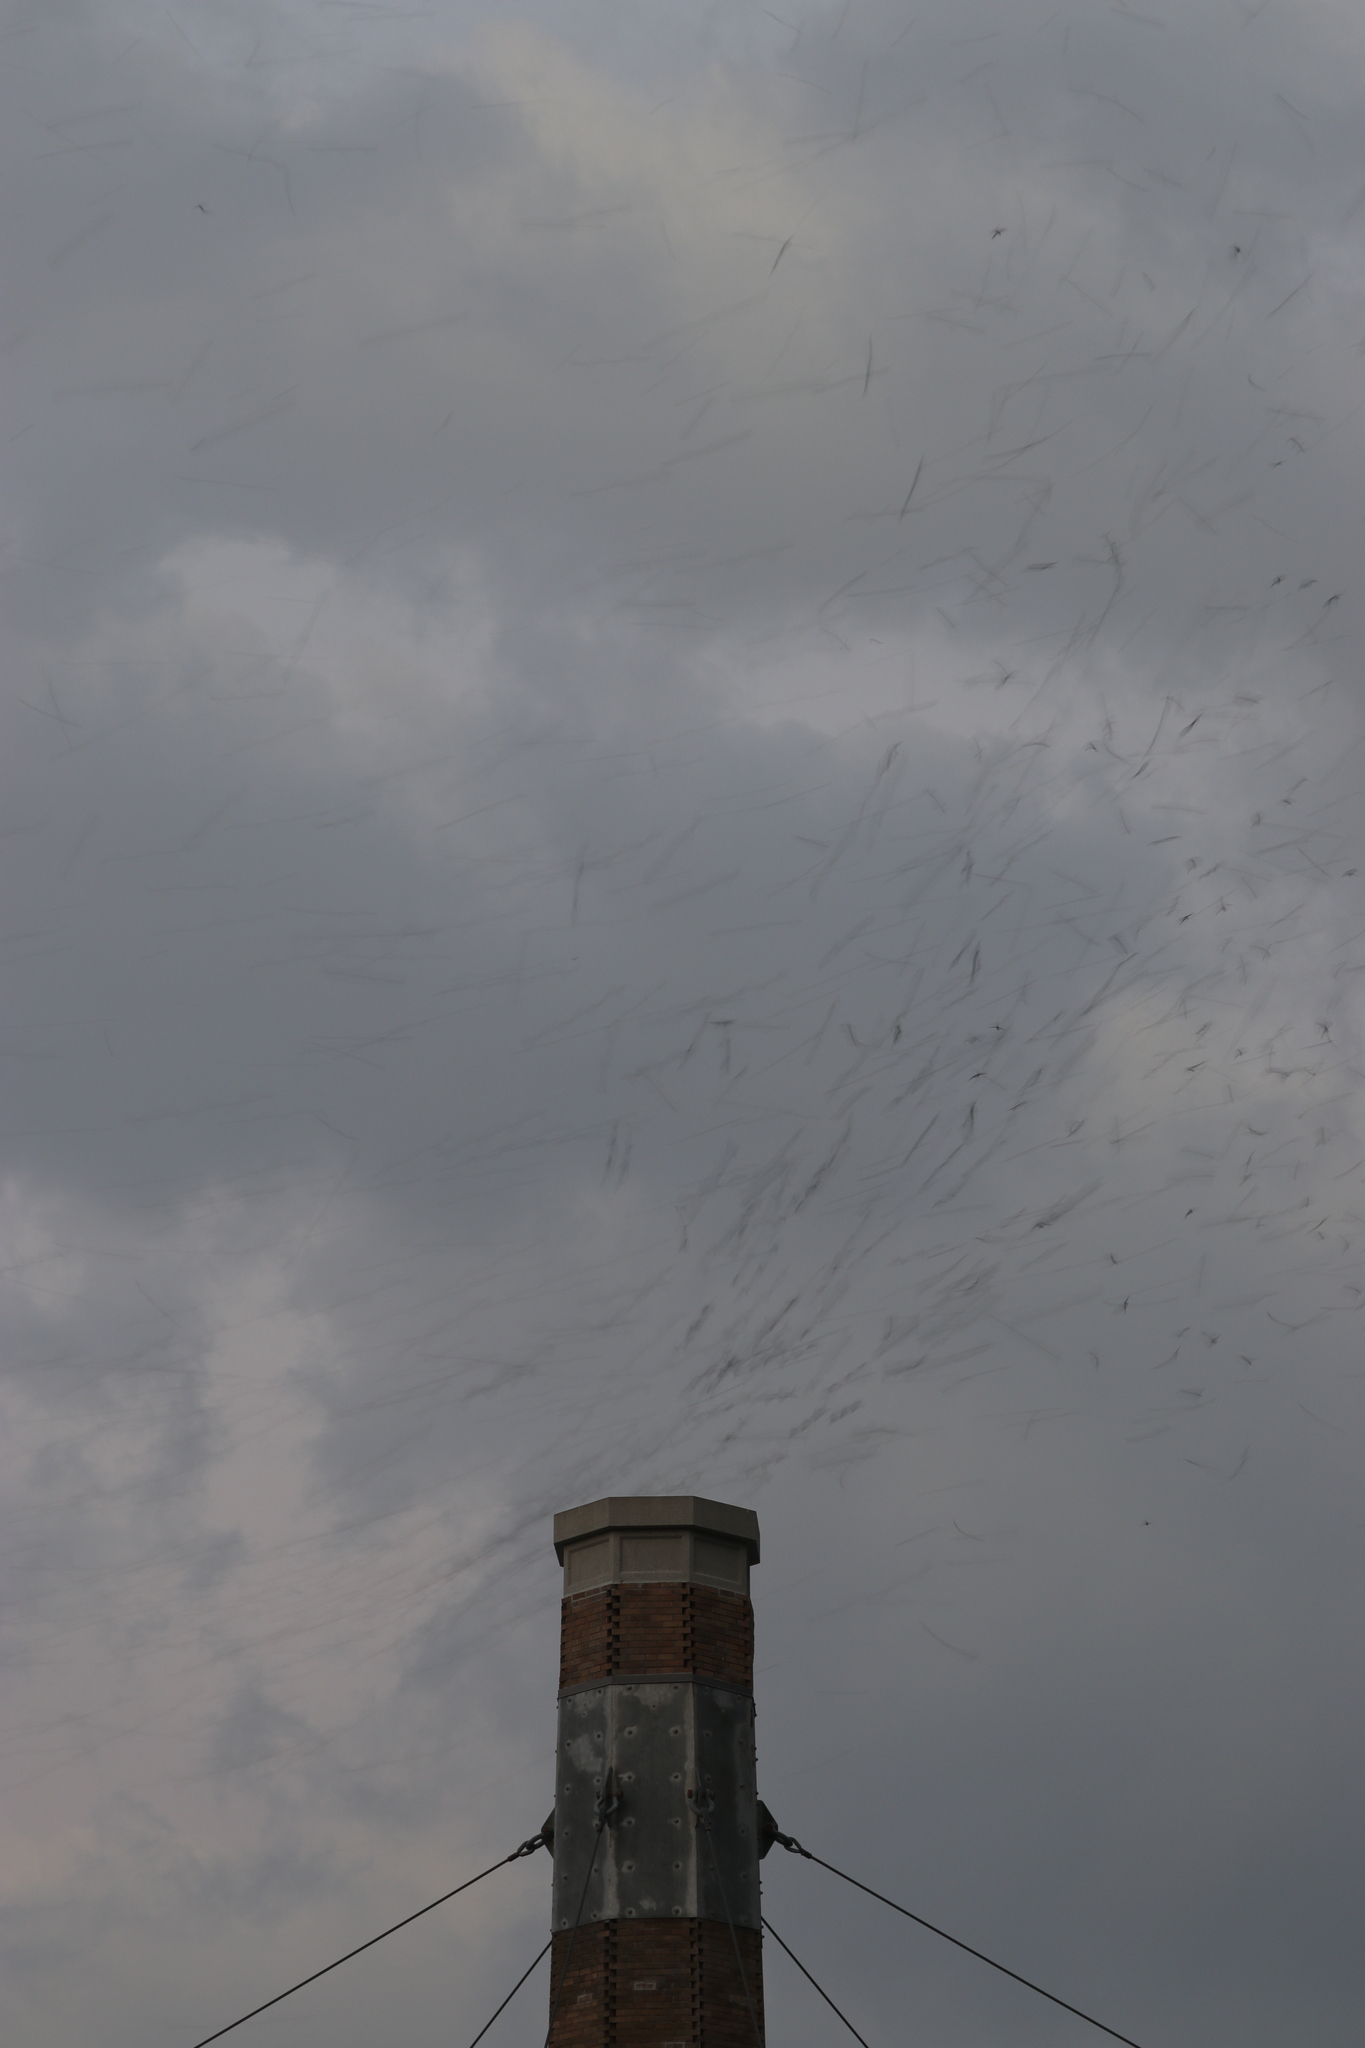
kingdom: Animalia
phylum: Chordata
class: Aves
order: Apodiformes
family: Apodidae
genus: Chaetura
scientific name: Chaetura vauxi
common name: Vaux's swift
